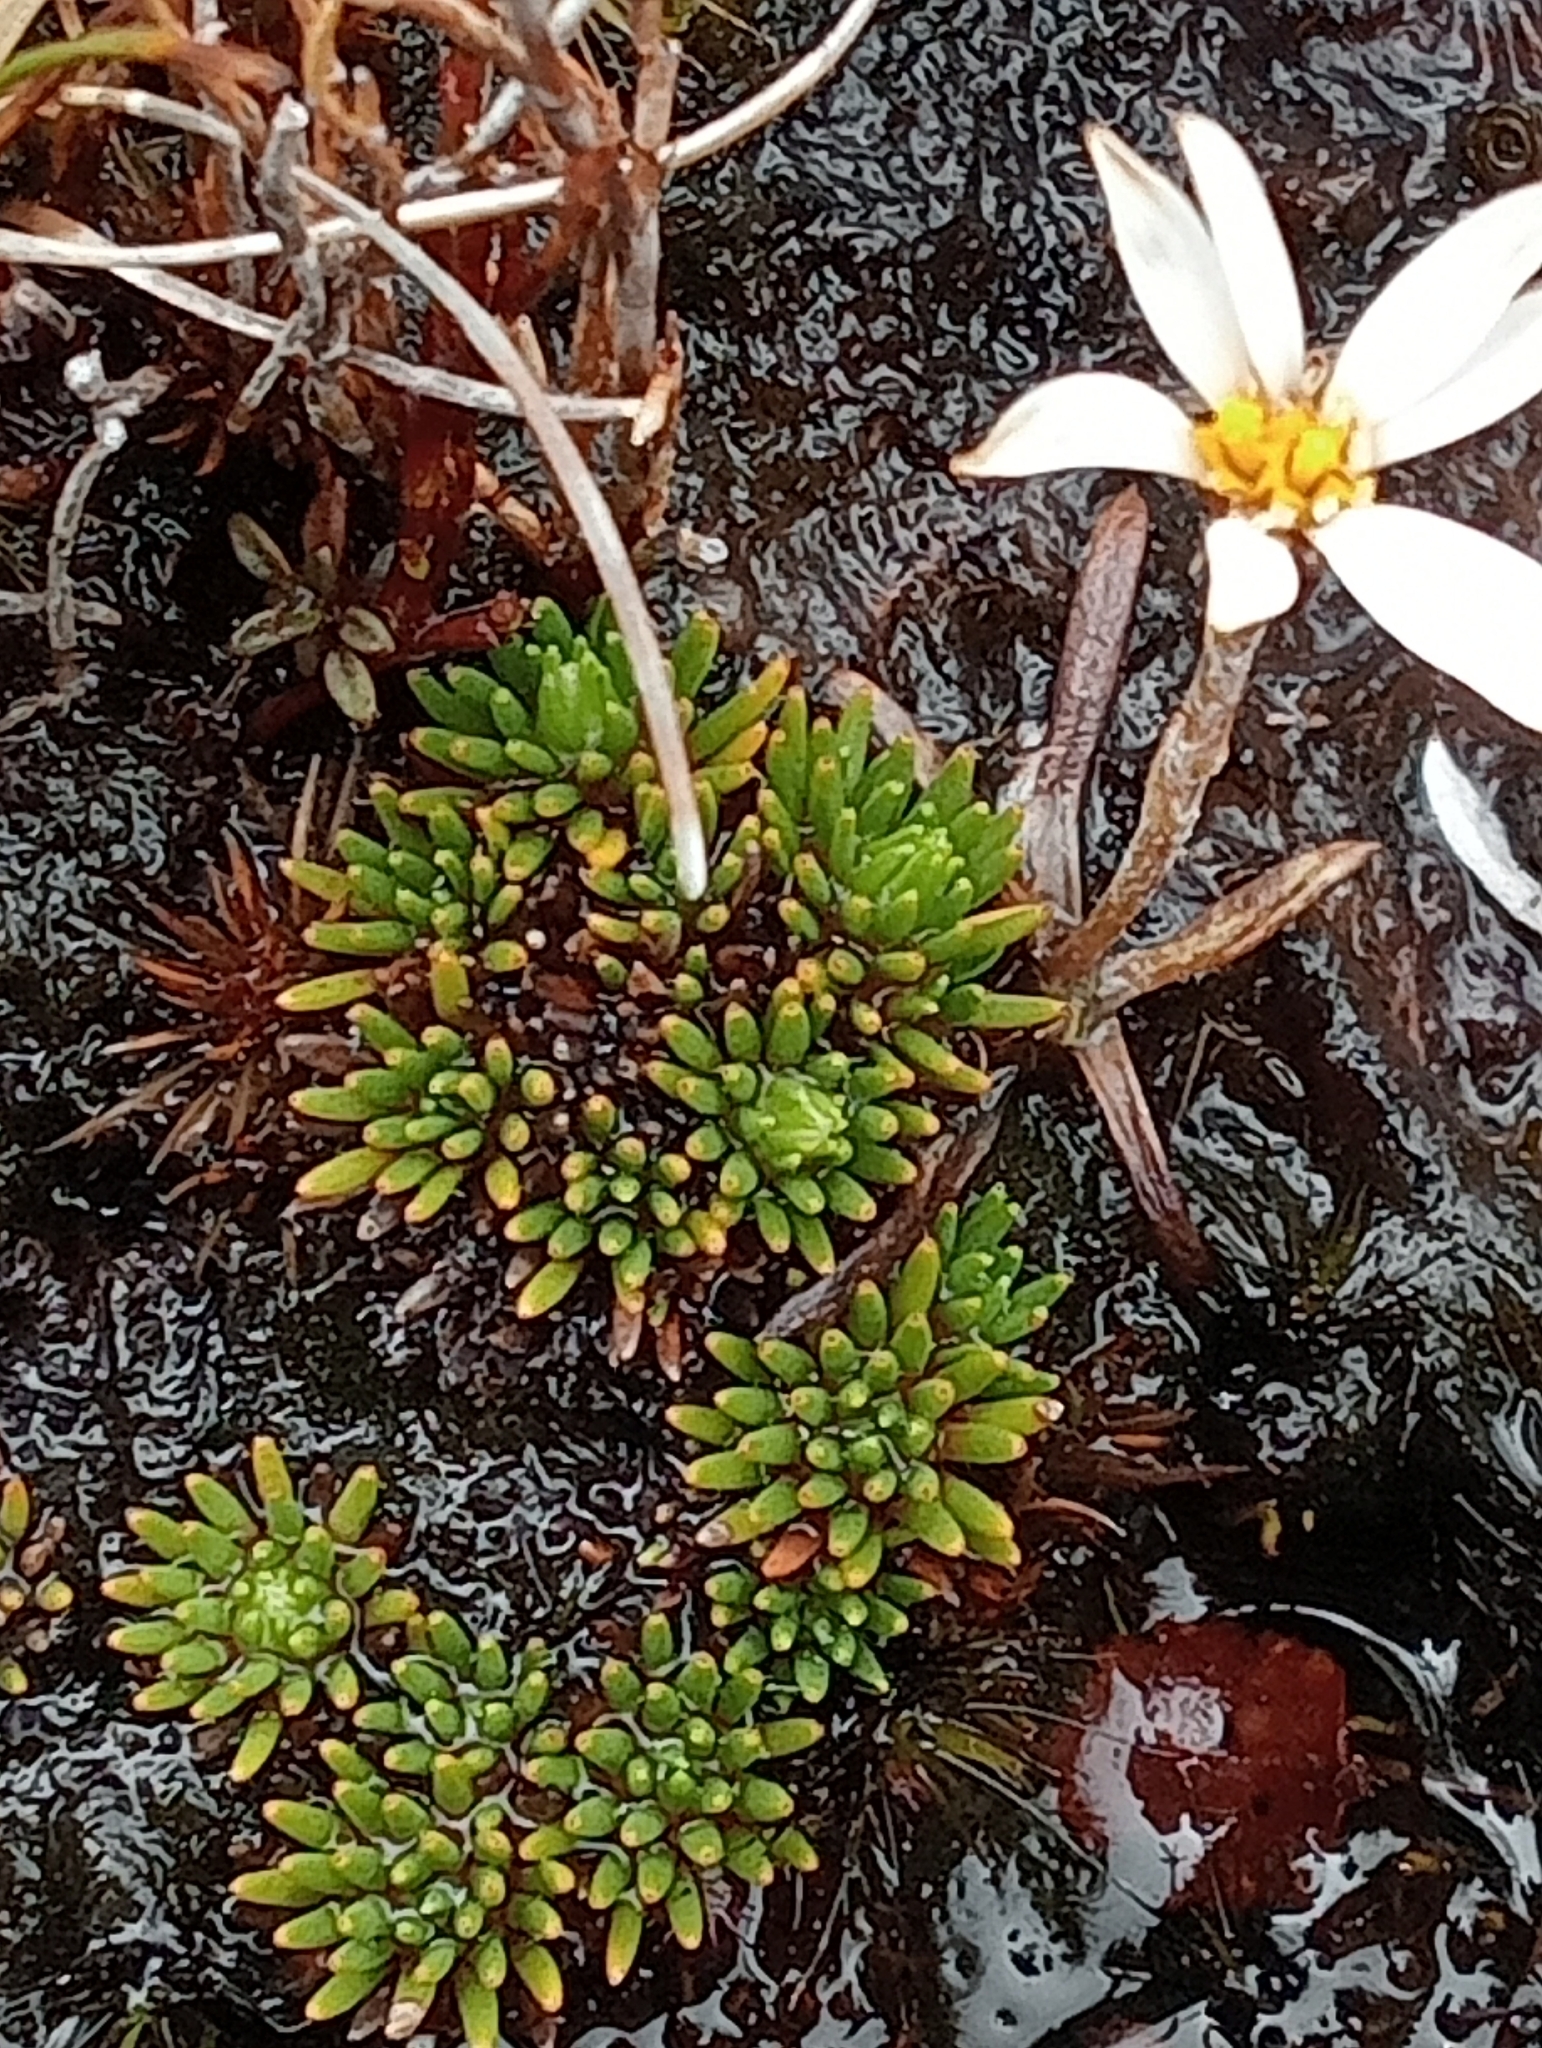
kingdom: Plantae
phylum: Tracheophyta
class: Magnoliopsida
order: Asterales
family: Asteraceae
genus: Celmisia
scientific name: Celmisia alpina
